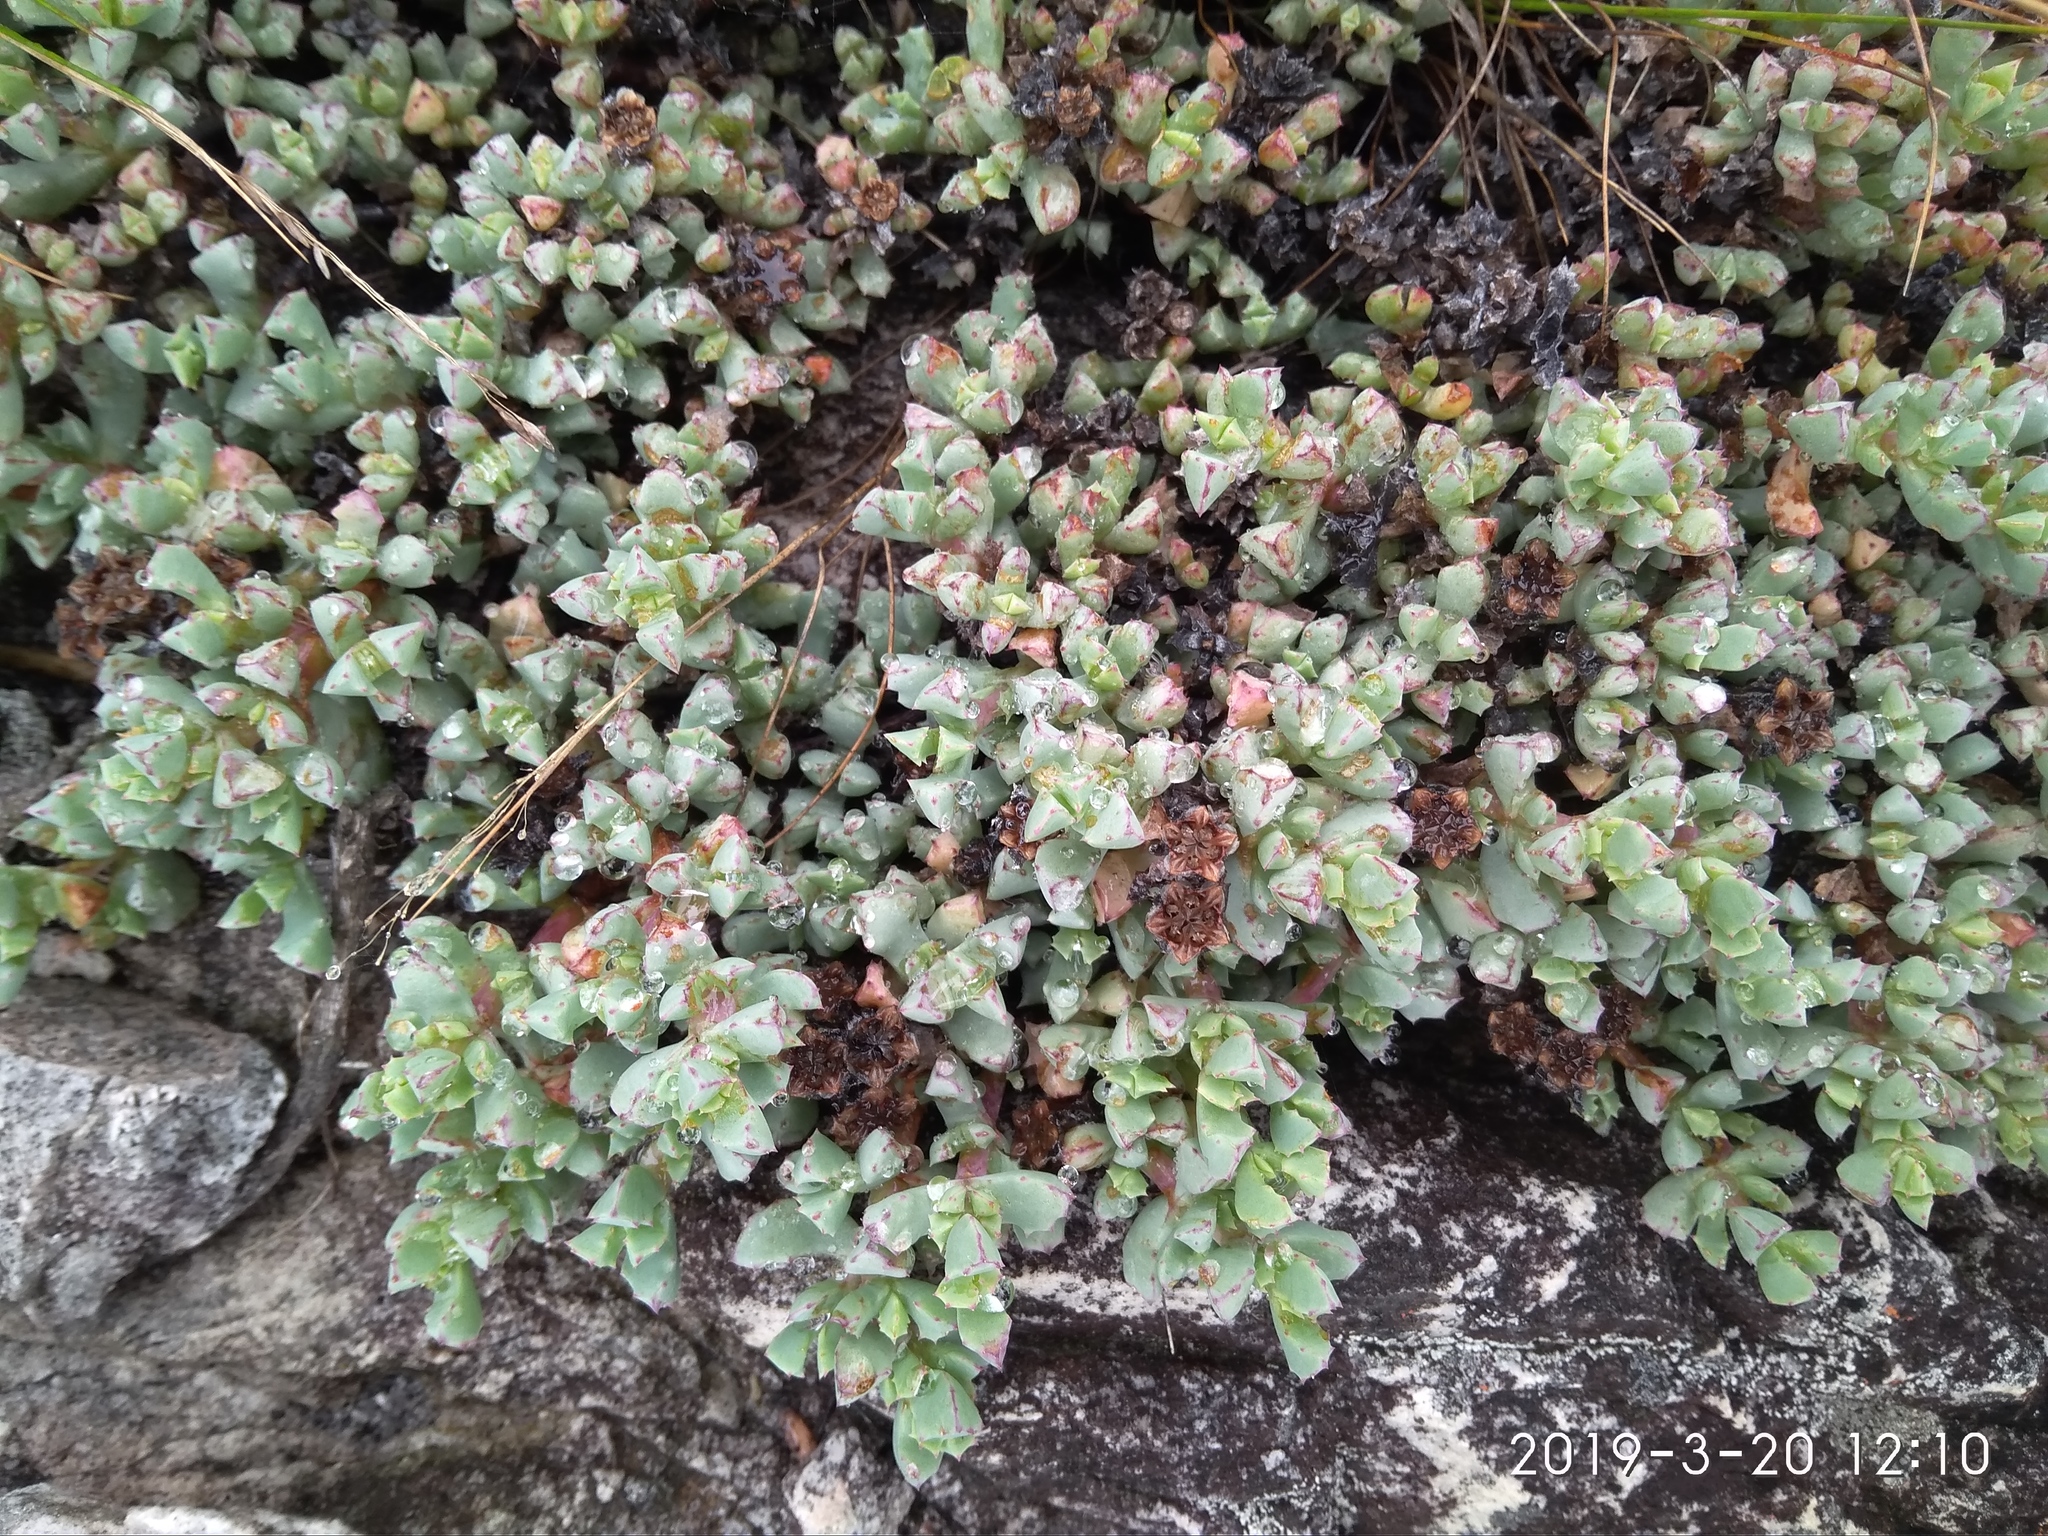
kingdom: Plantae
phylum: Tracheophyta
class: Magnoliopsida
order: Caryophyllales
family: Aizoaceae
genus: Oscularia
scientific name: Oscularia deltoides
